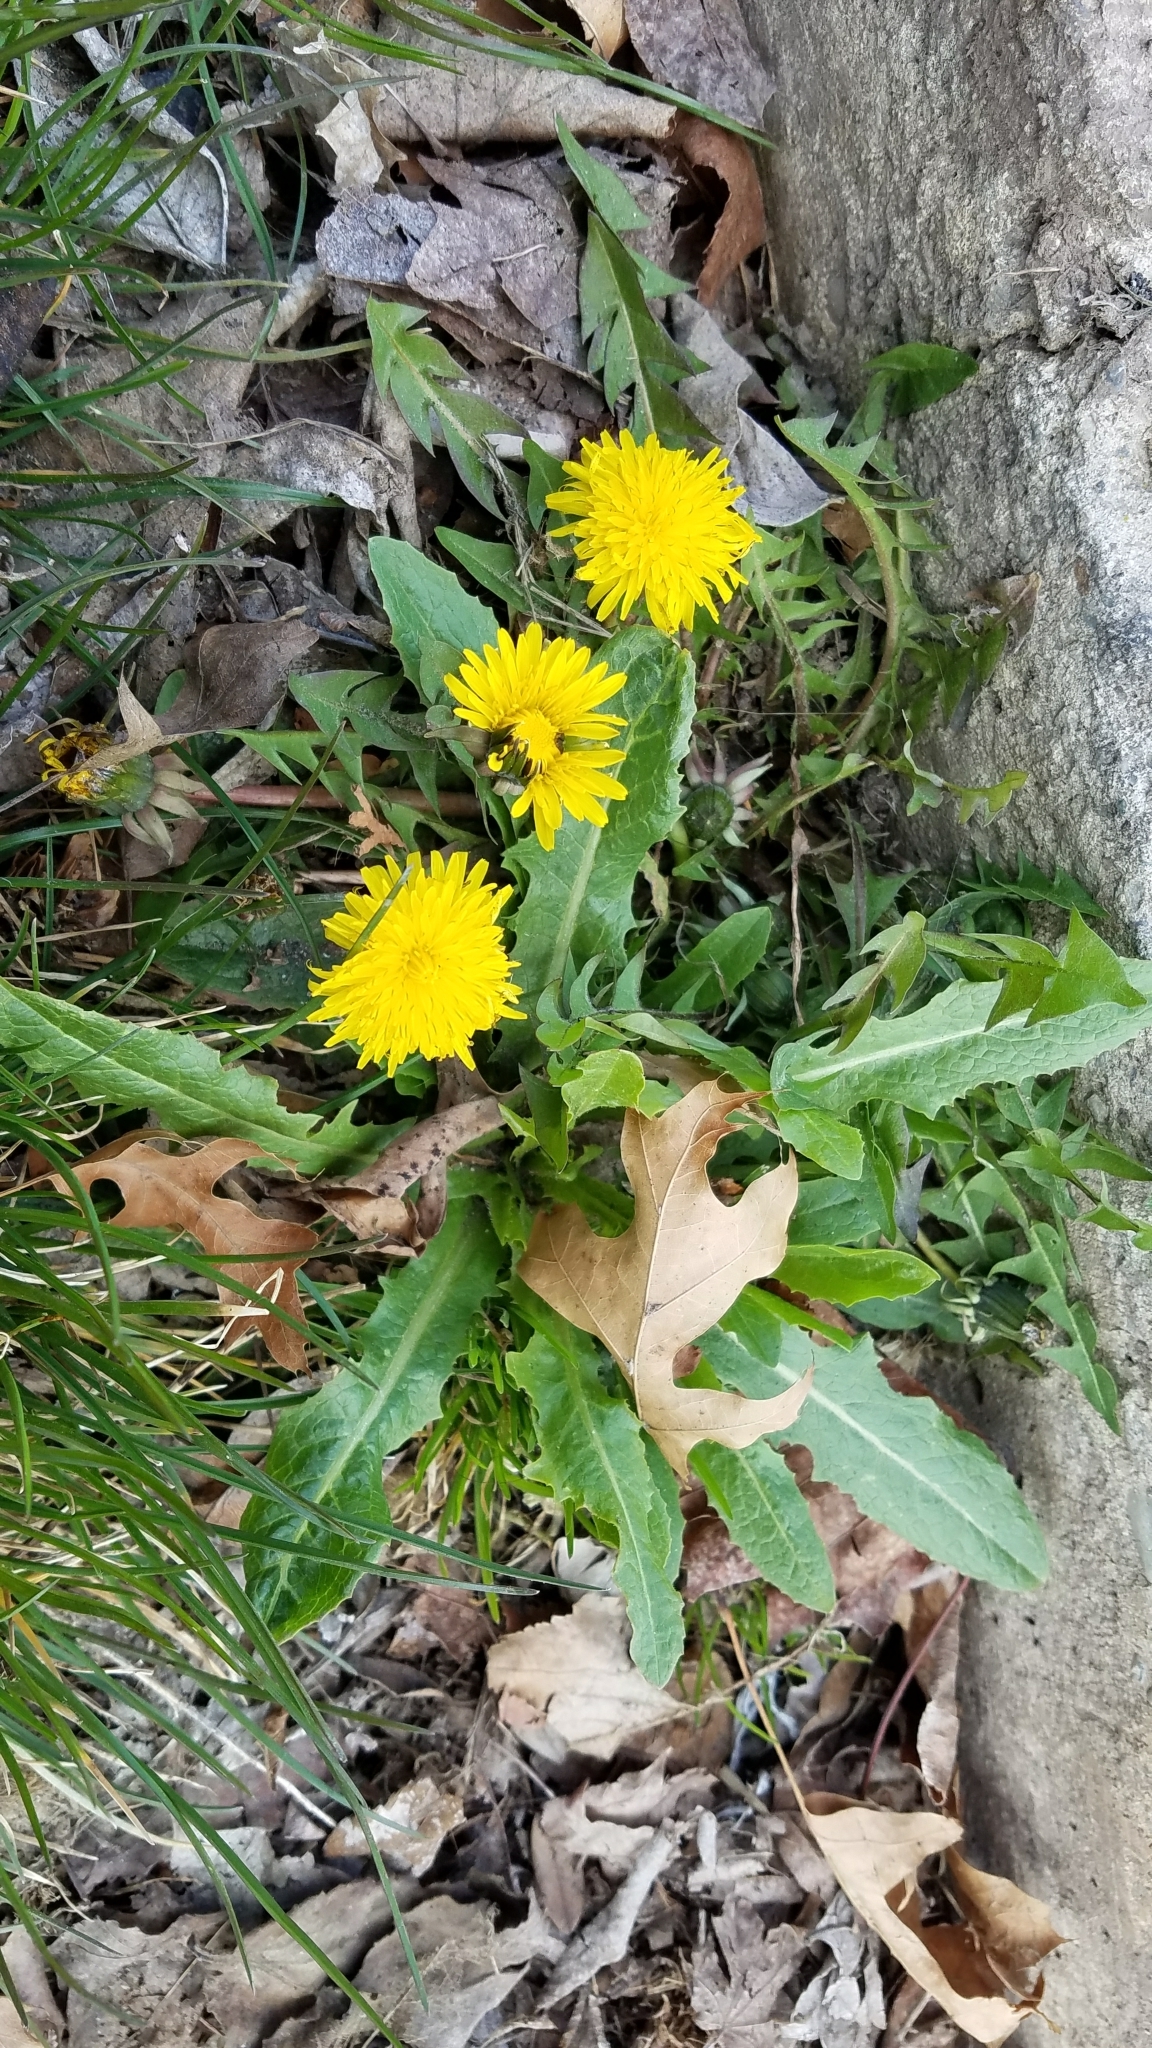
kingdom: Plantae
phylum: Tracheophyta
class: Magnoliopsida
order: Asterales
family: Asteraceae
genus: Taraxacum
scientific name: Taraxacum officinale
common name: Common dandelion
